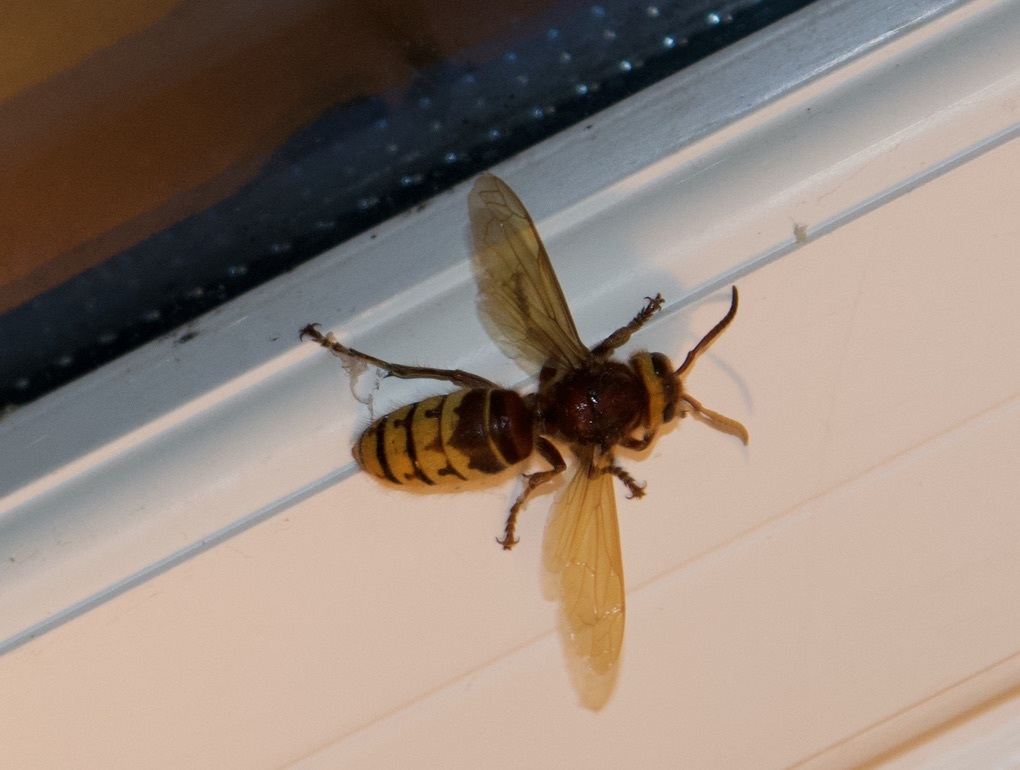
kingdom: Animalia
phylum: Arthropoda
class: Insecta
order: Hymenoptera
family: Vespidae
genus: Vespa
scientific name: Vespa crabro
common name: Hornet
